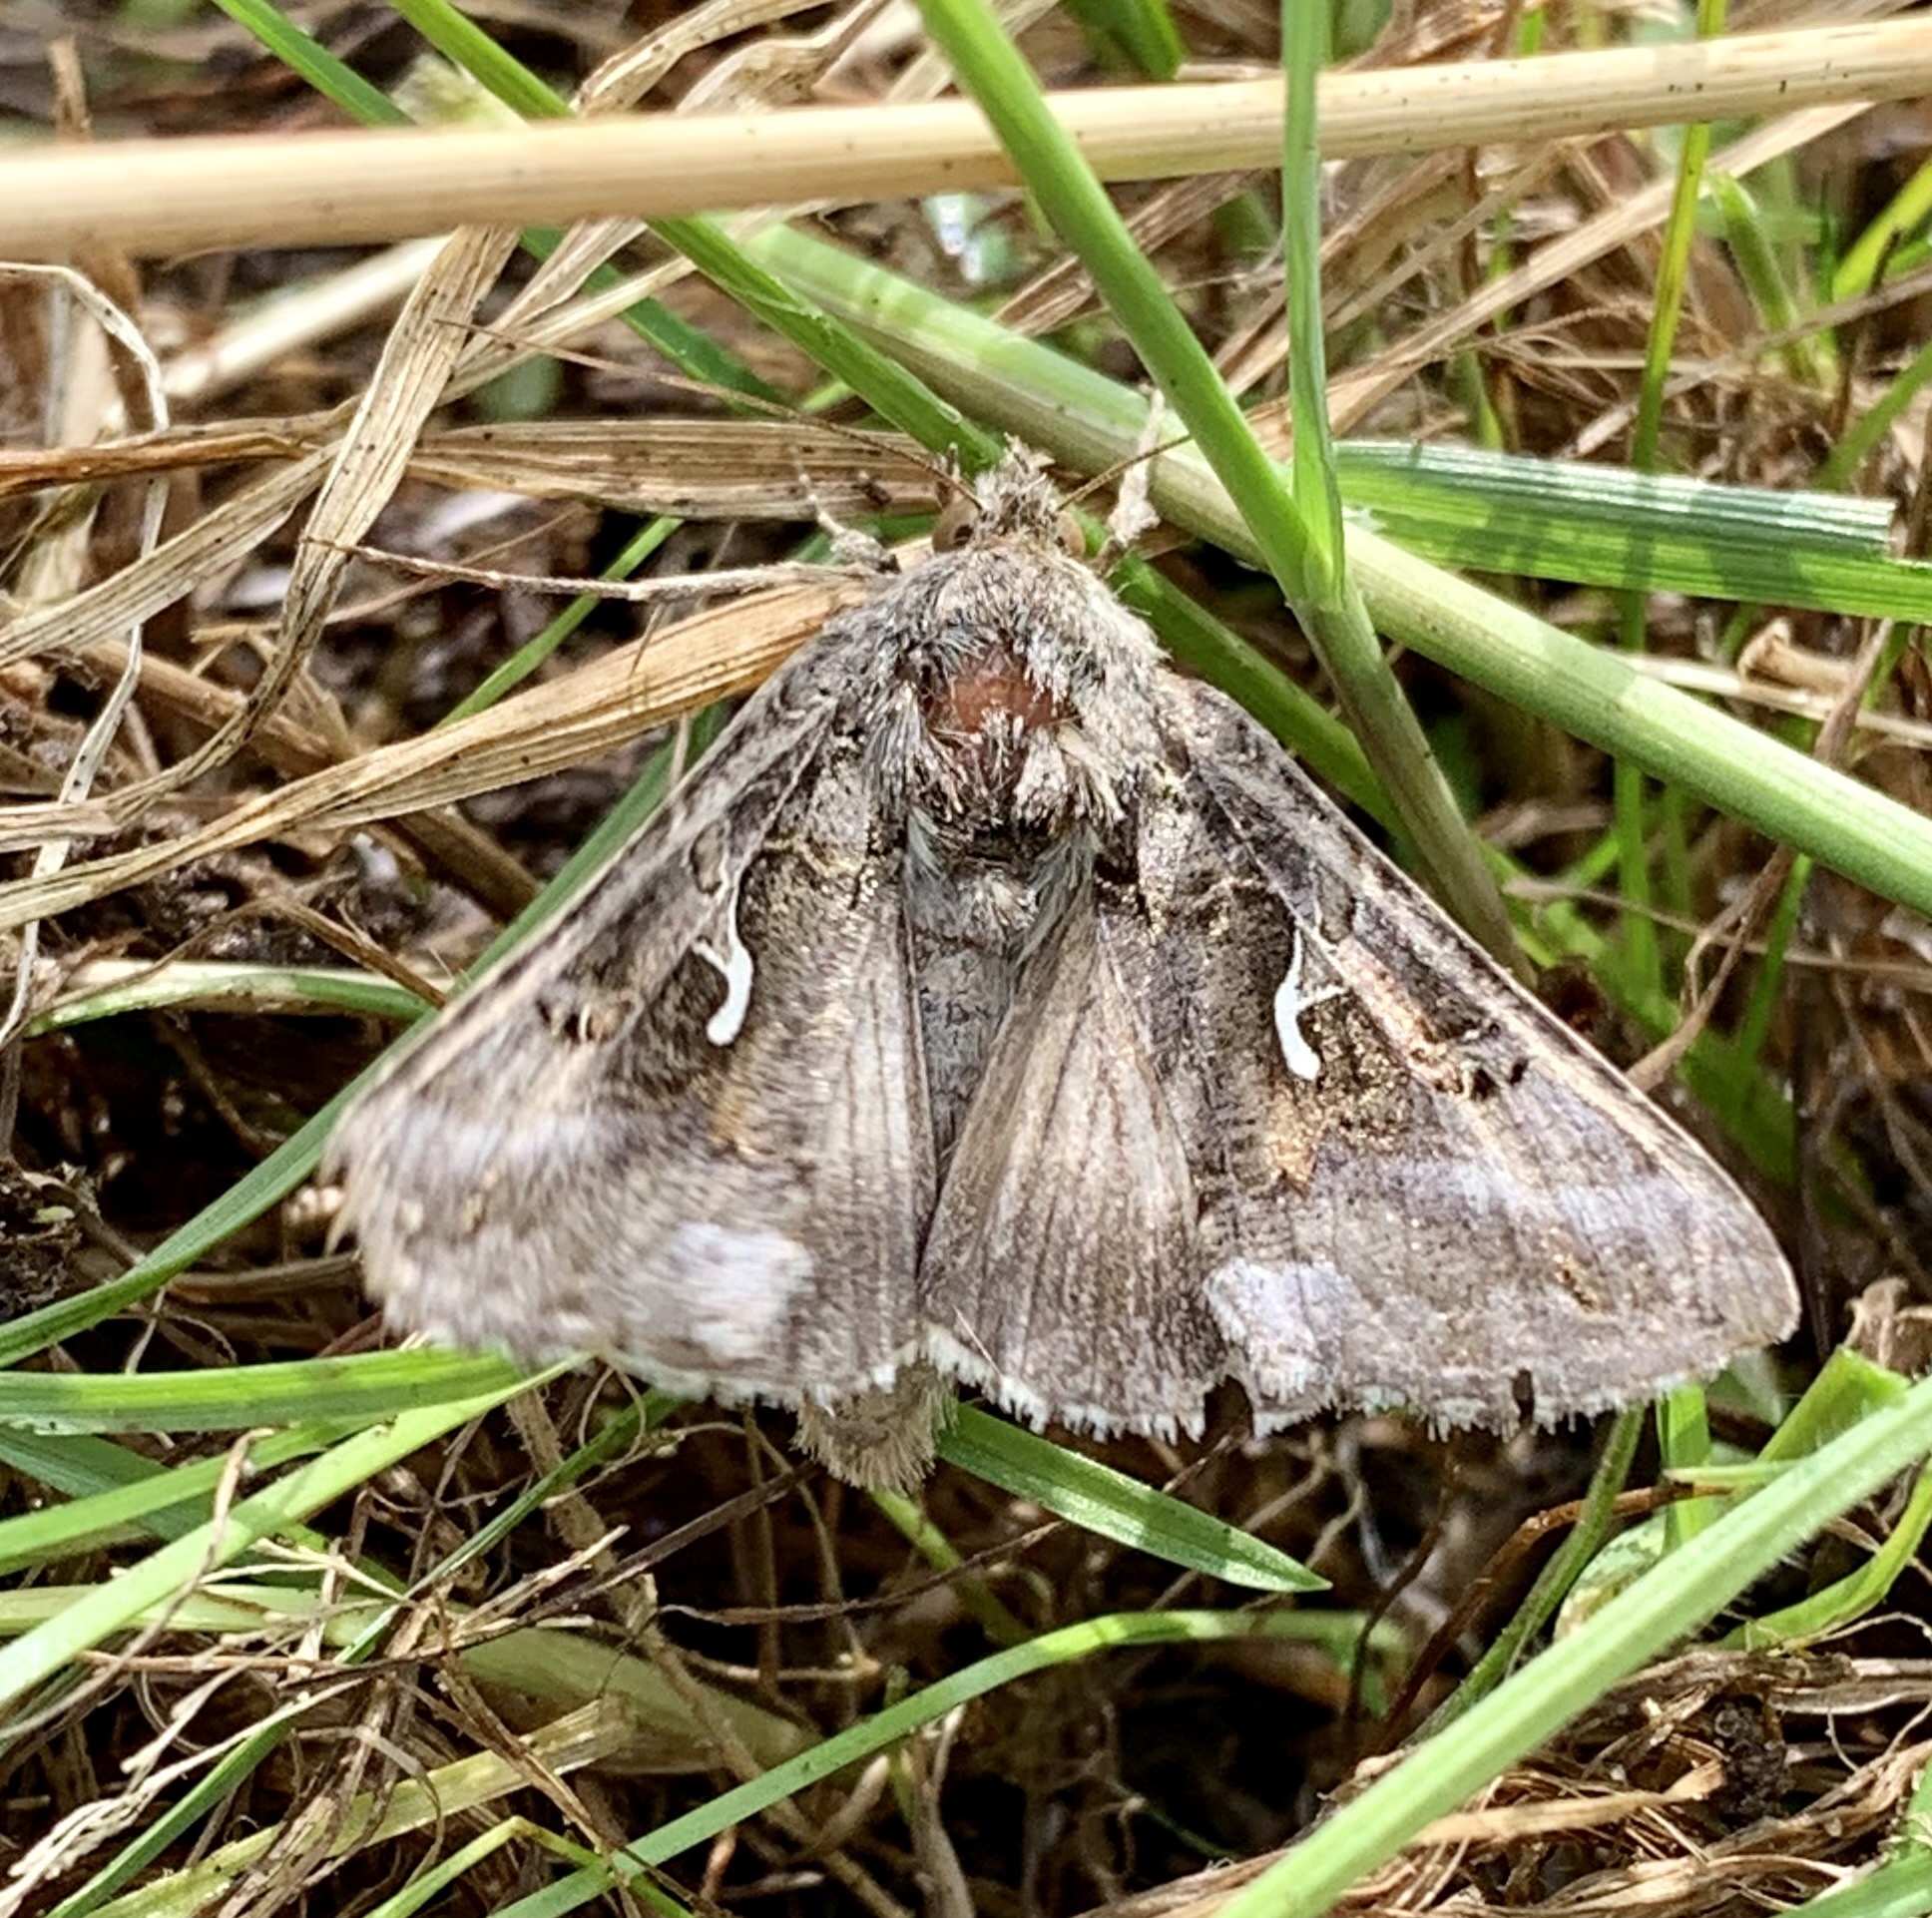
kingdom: Animalia
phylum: Arthropoda
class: Insecta
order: Lepidoptera
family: Noctuidae
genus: Autographa
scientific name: Autographa gamma
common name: Silver y
